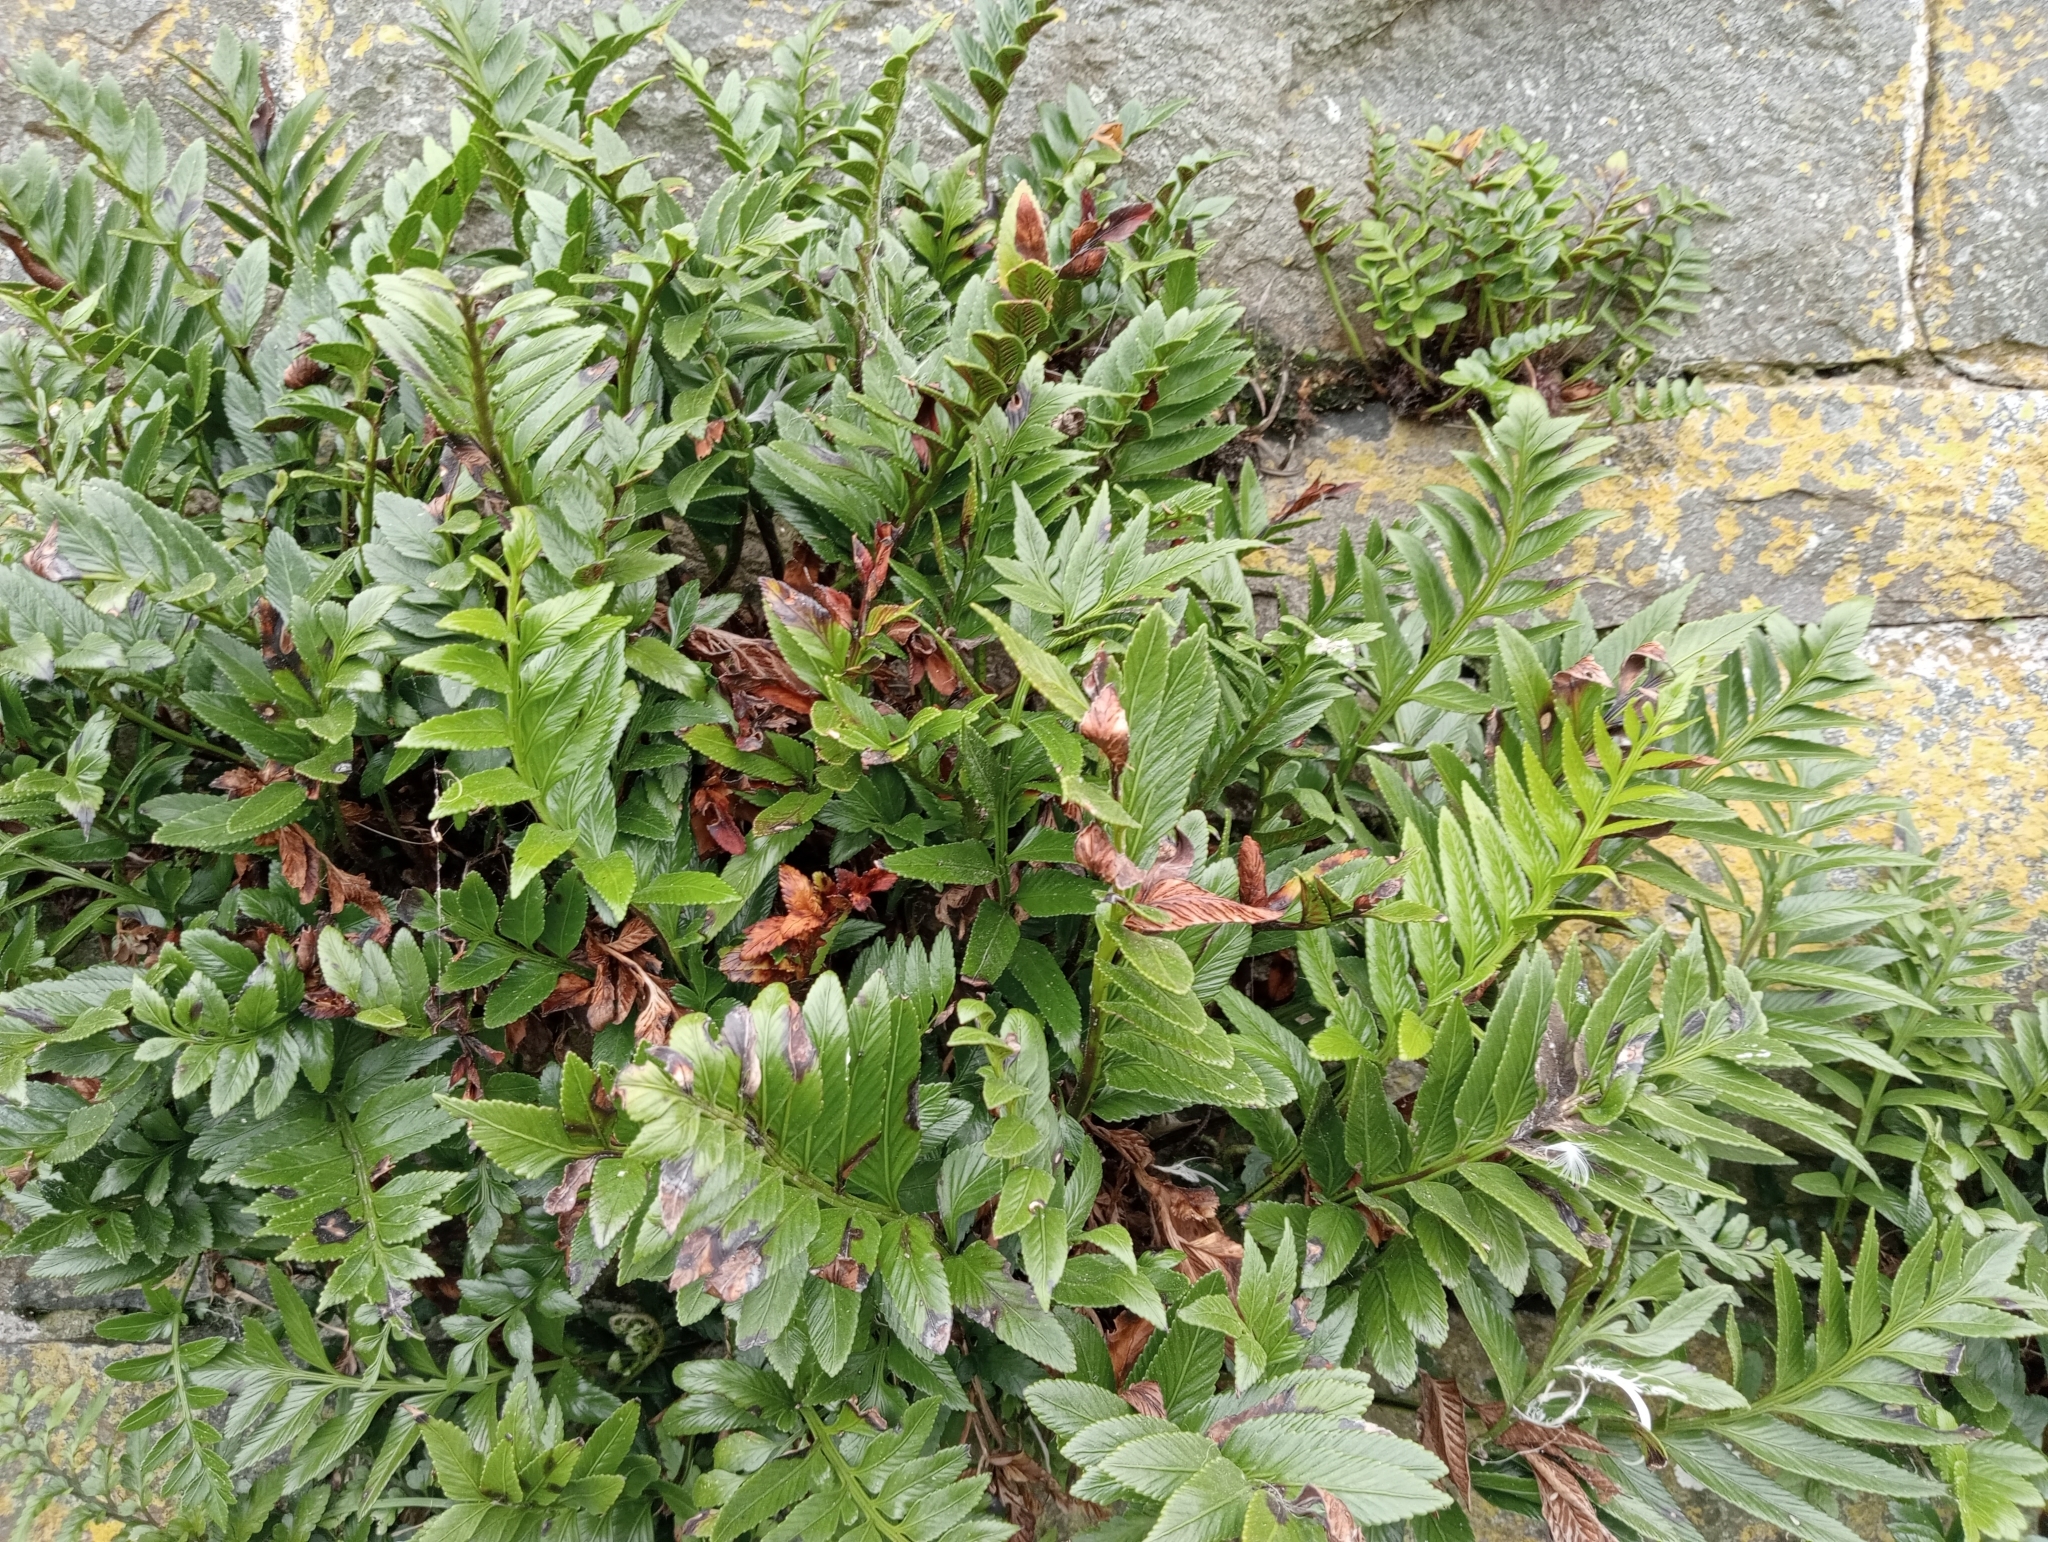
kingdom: Plantae
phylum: Tracheophyta
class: Polypodiopsida
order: Polypodiales
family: Aspleniaceae
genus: Asplenium
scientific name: Asplenium obtusatum
